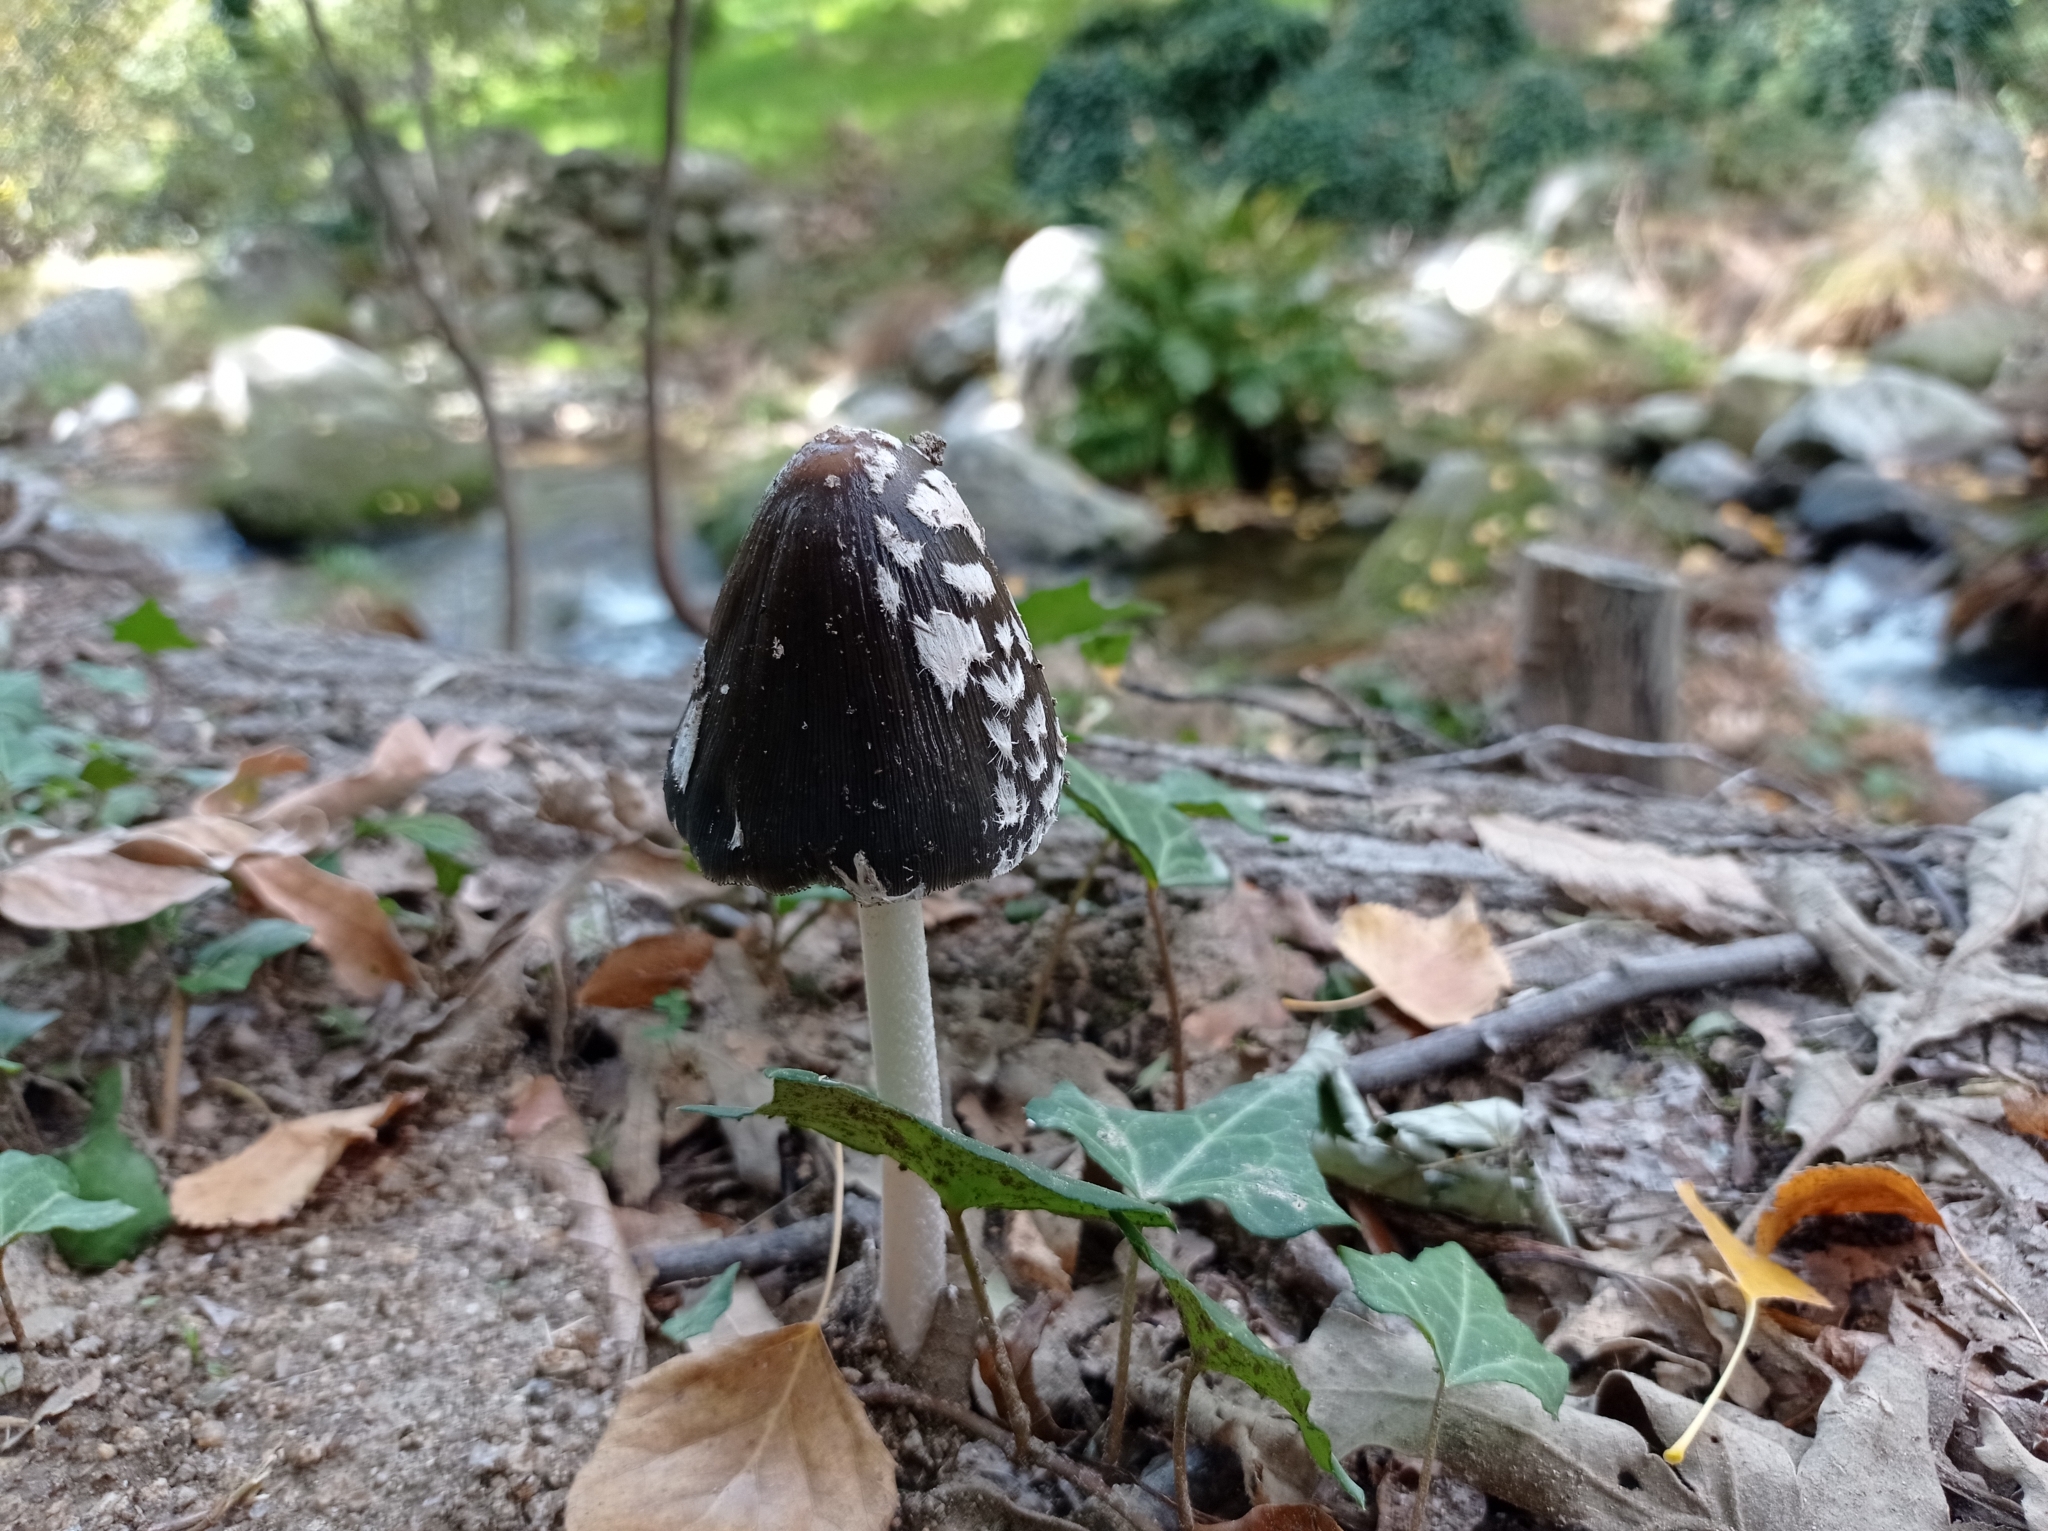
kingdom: Fungi
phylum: Basidiomycota
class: Agaricomycetes
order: Agaricales
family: Psathyrellaceae
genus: Coprinopsis
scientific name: Coprinopsis picacea
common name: Magpie inkcap
